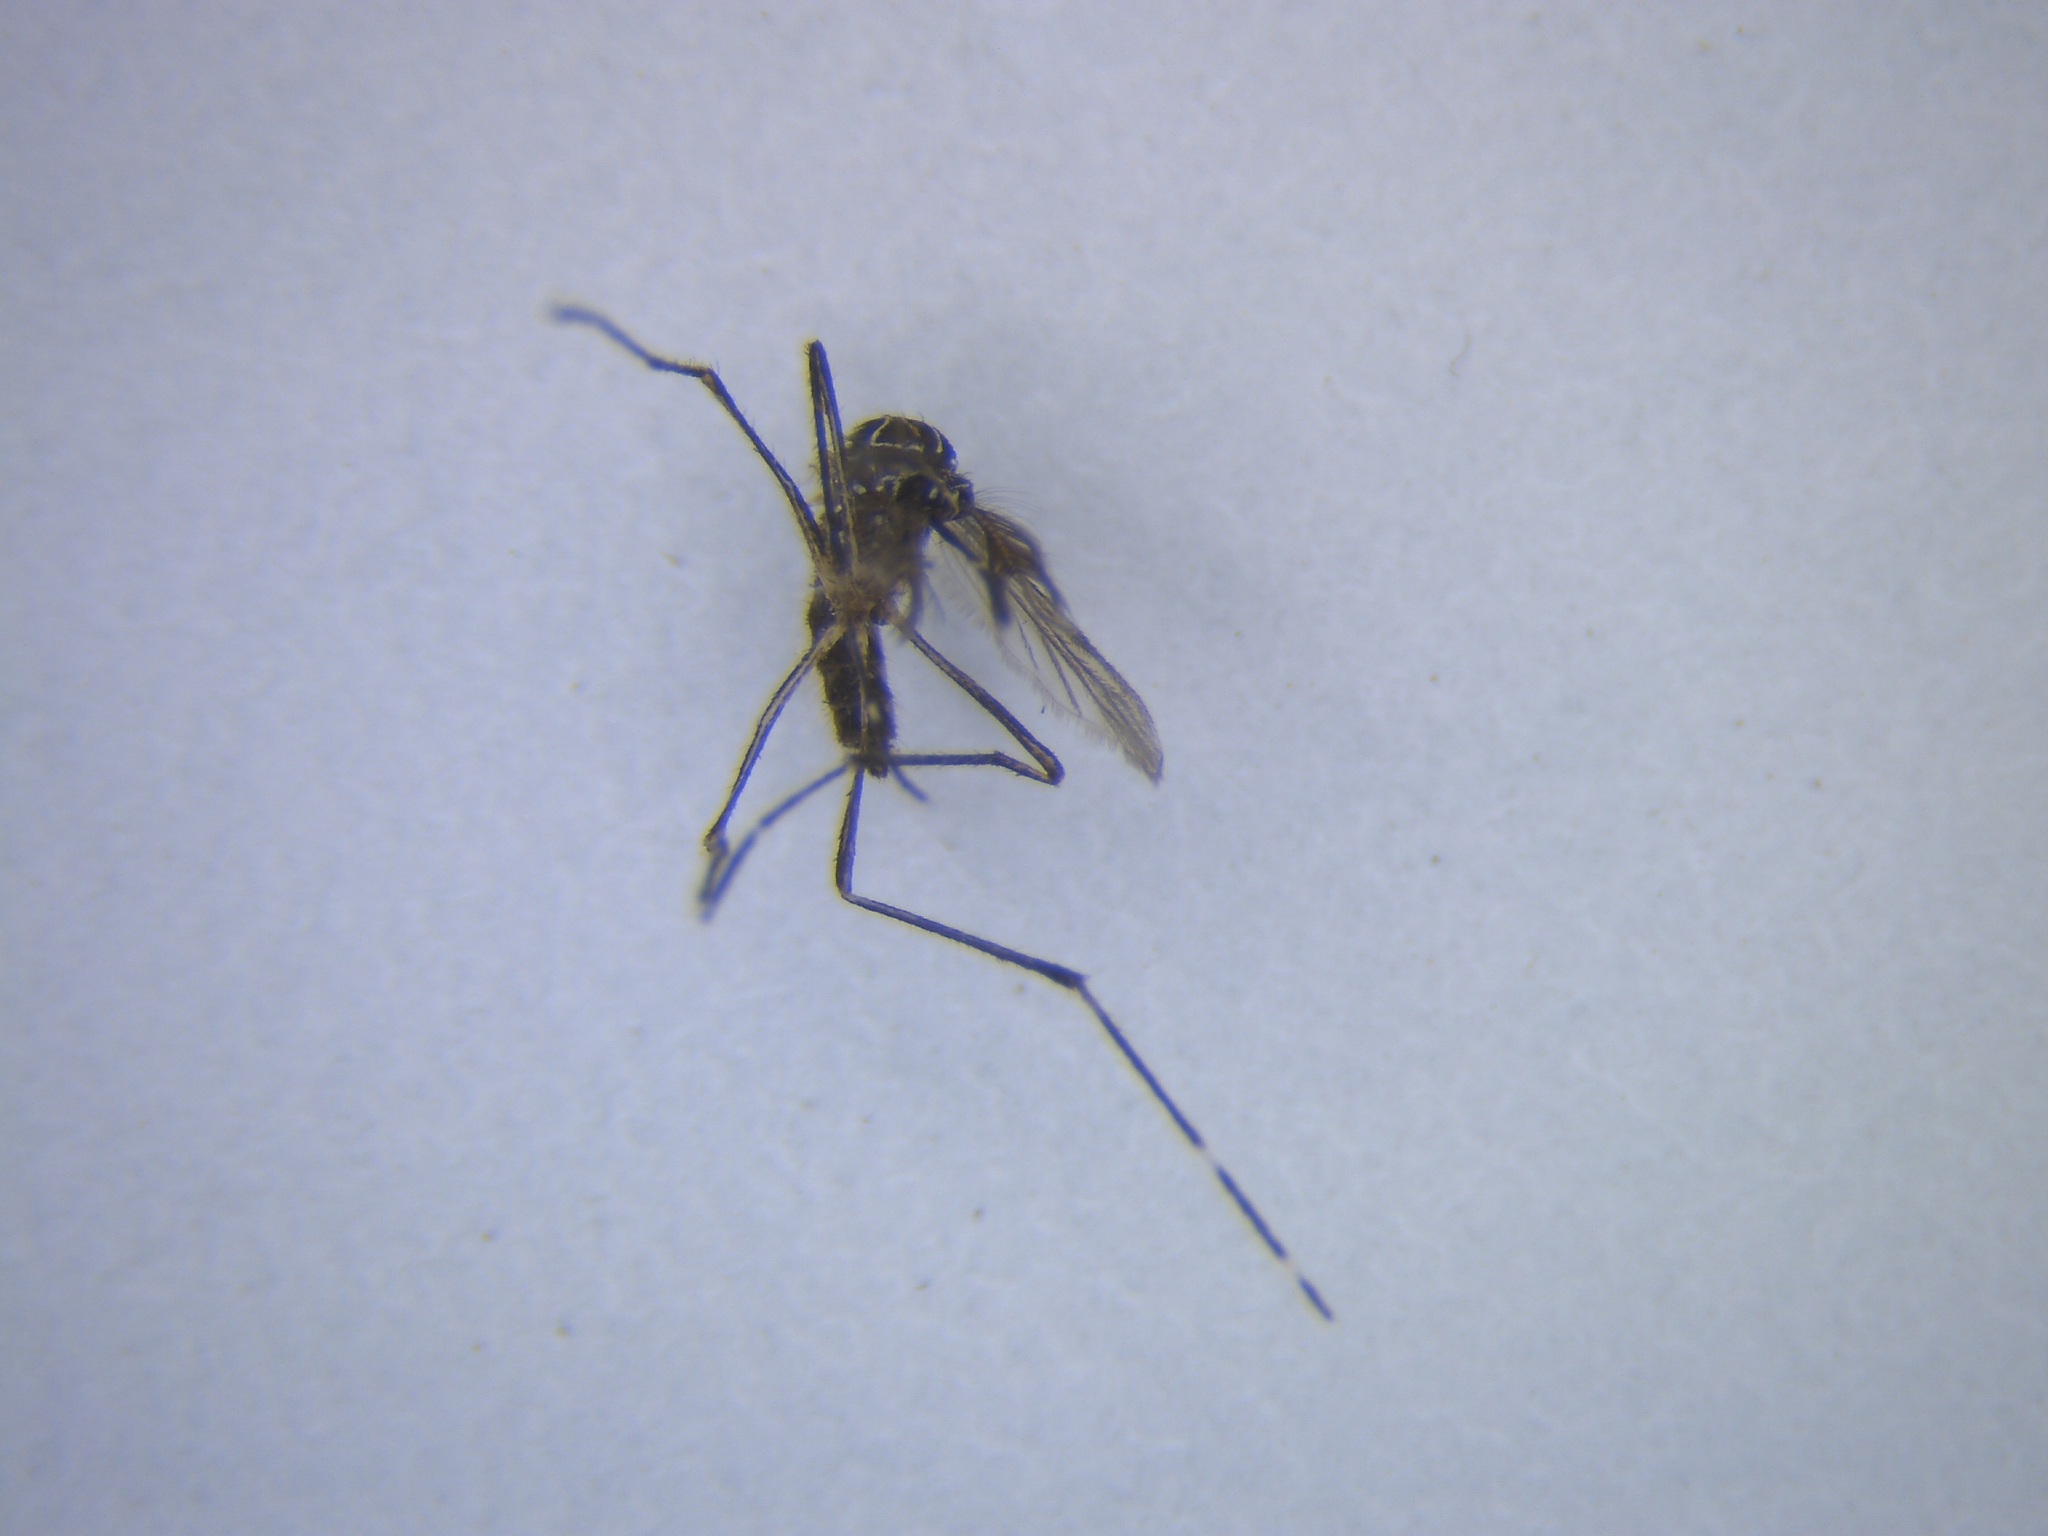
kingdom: Animalia
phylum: Arthropoda
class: Insecta
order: Diptera
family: Culicidae
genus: Aedes
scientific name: Aedes notoscriptus
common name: Australian backyard mosquito
